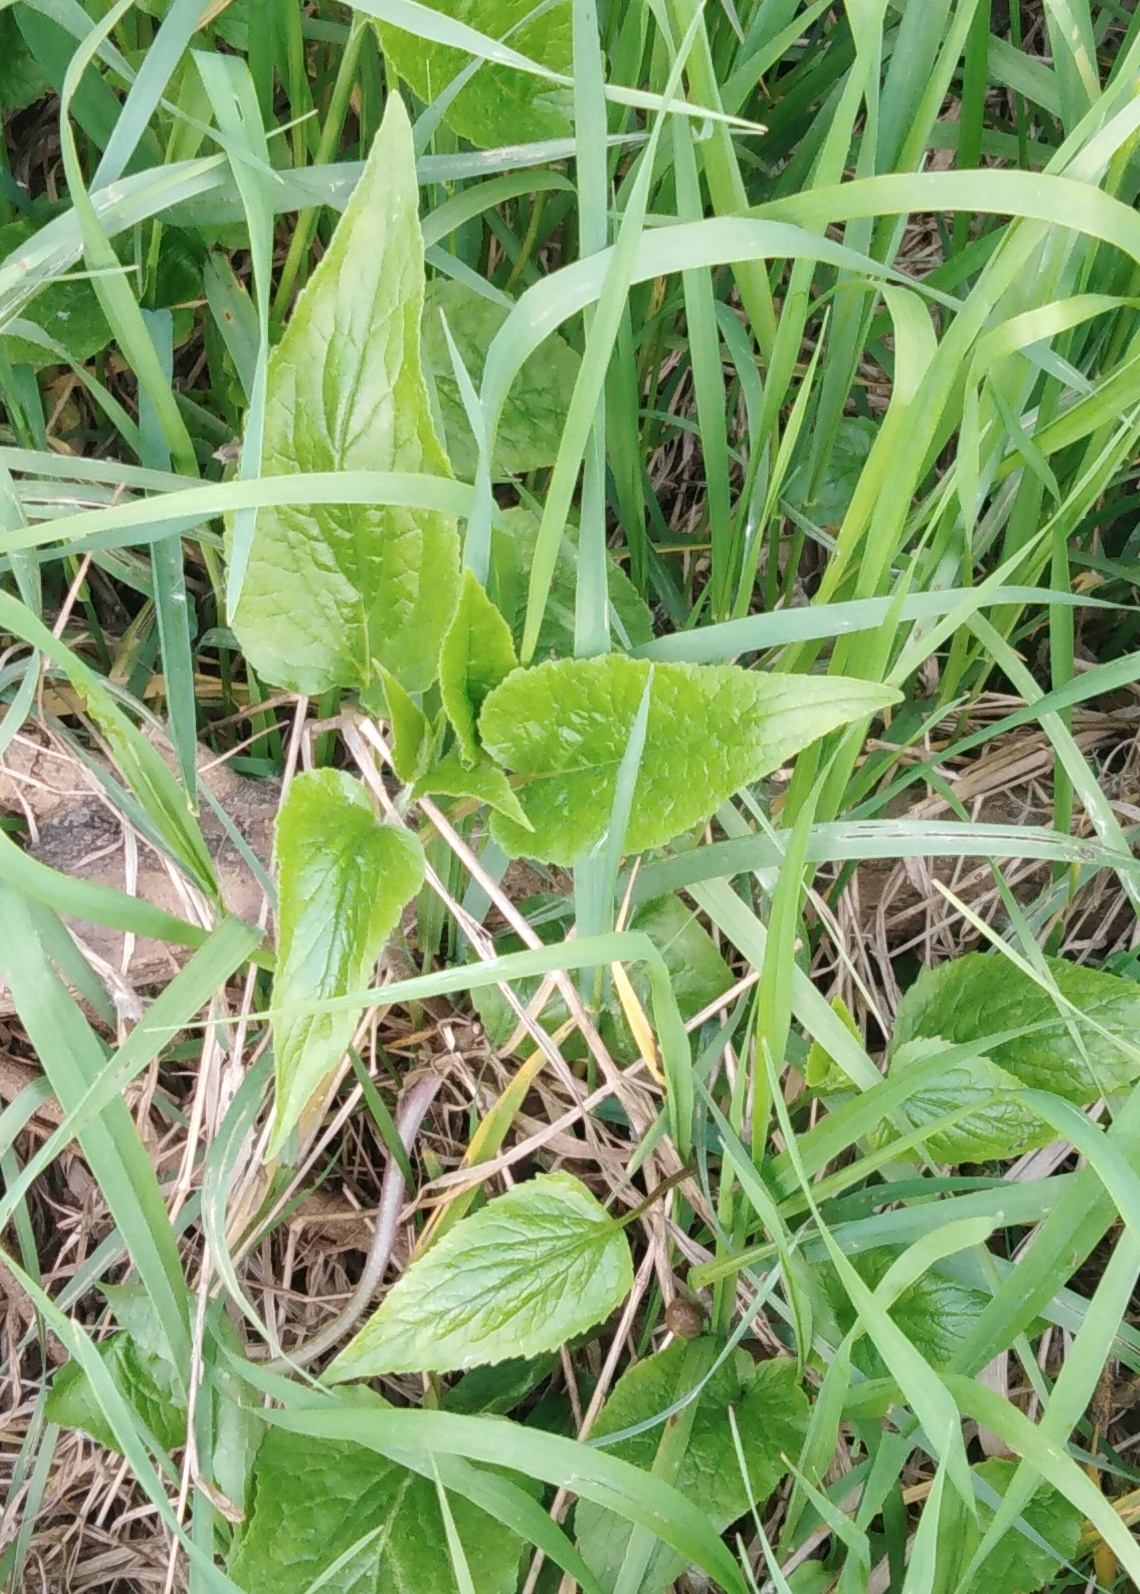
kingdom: Plantae
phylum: Tracheophyta
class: Magnoliopsida
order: Asterales
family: Campanulaceae
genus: Campanula
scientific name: Campanula rapunculoides
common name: Creeping bellflower
